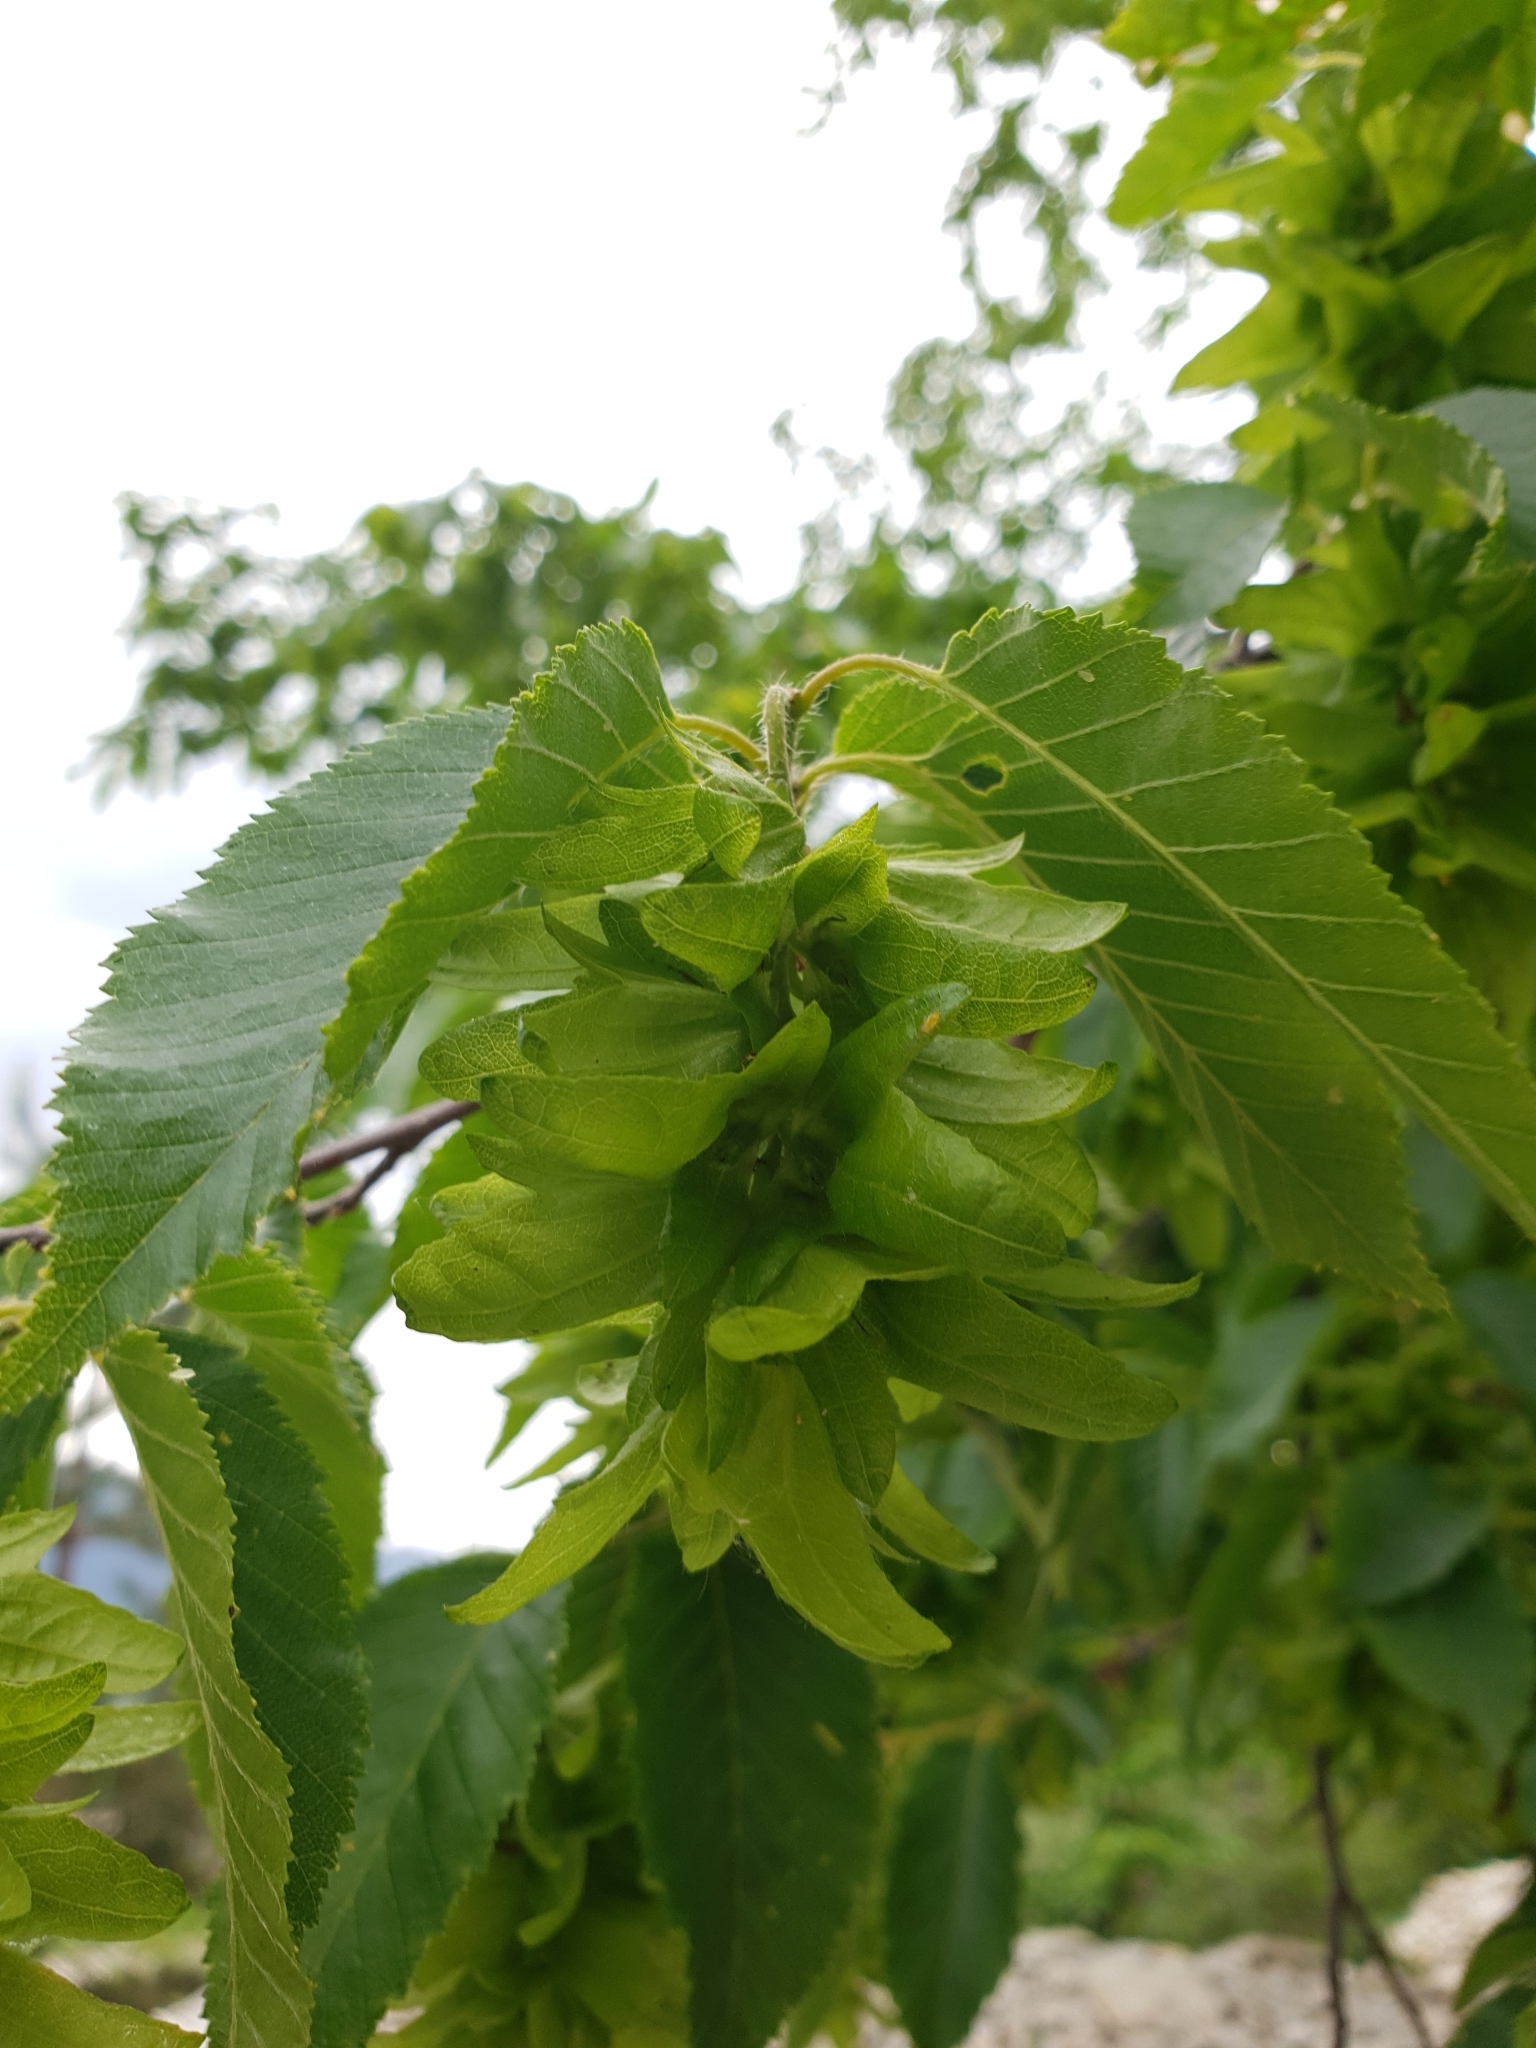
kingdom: Plantae
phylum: Tracheophyta
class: Magnoliopsida
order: Fagales
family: Betulaceae
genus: Carpinus
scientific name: Carpinus betulus
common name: Hornbeam
